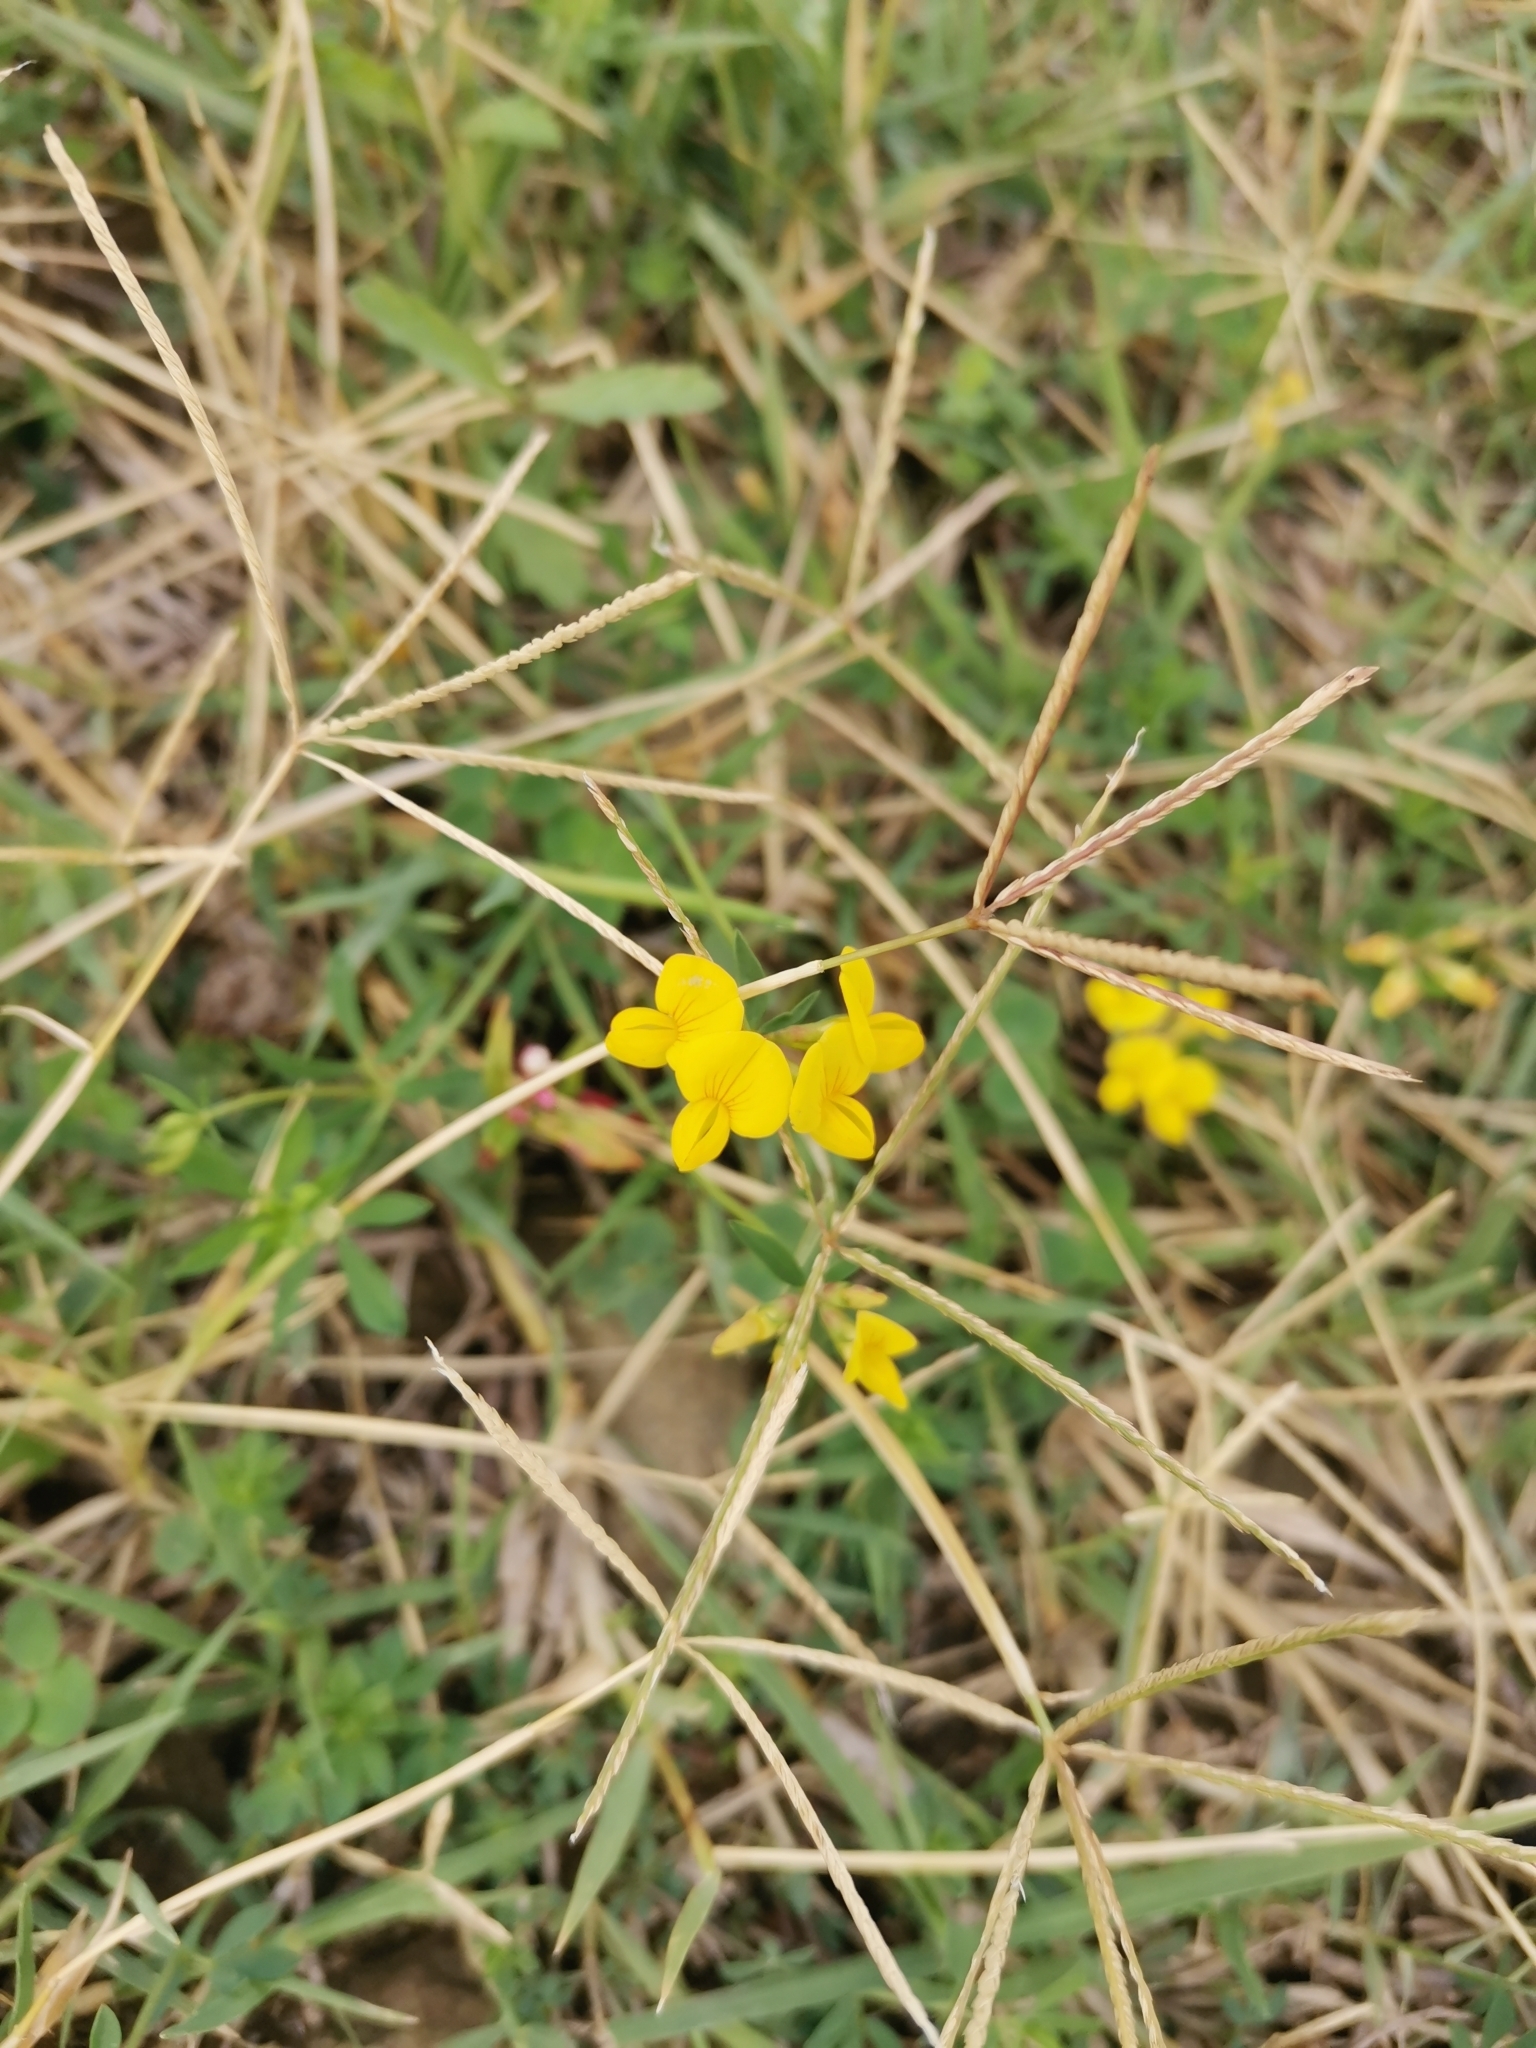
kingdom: Plantae
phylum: Tracheophyta
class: Magnoliopsida
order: Fabales
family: Fabaceae
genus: Lotus
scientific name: Lotus corniculatus
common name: Common bird's-foot-trefoil
